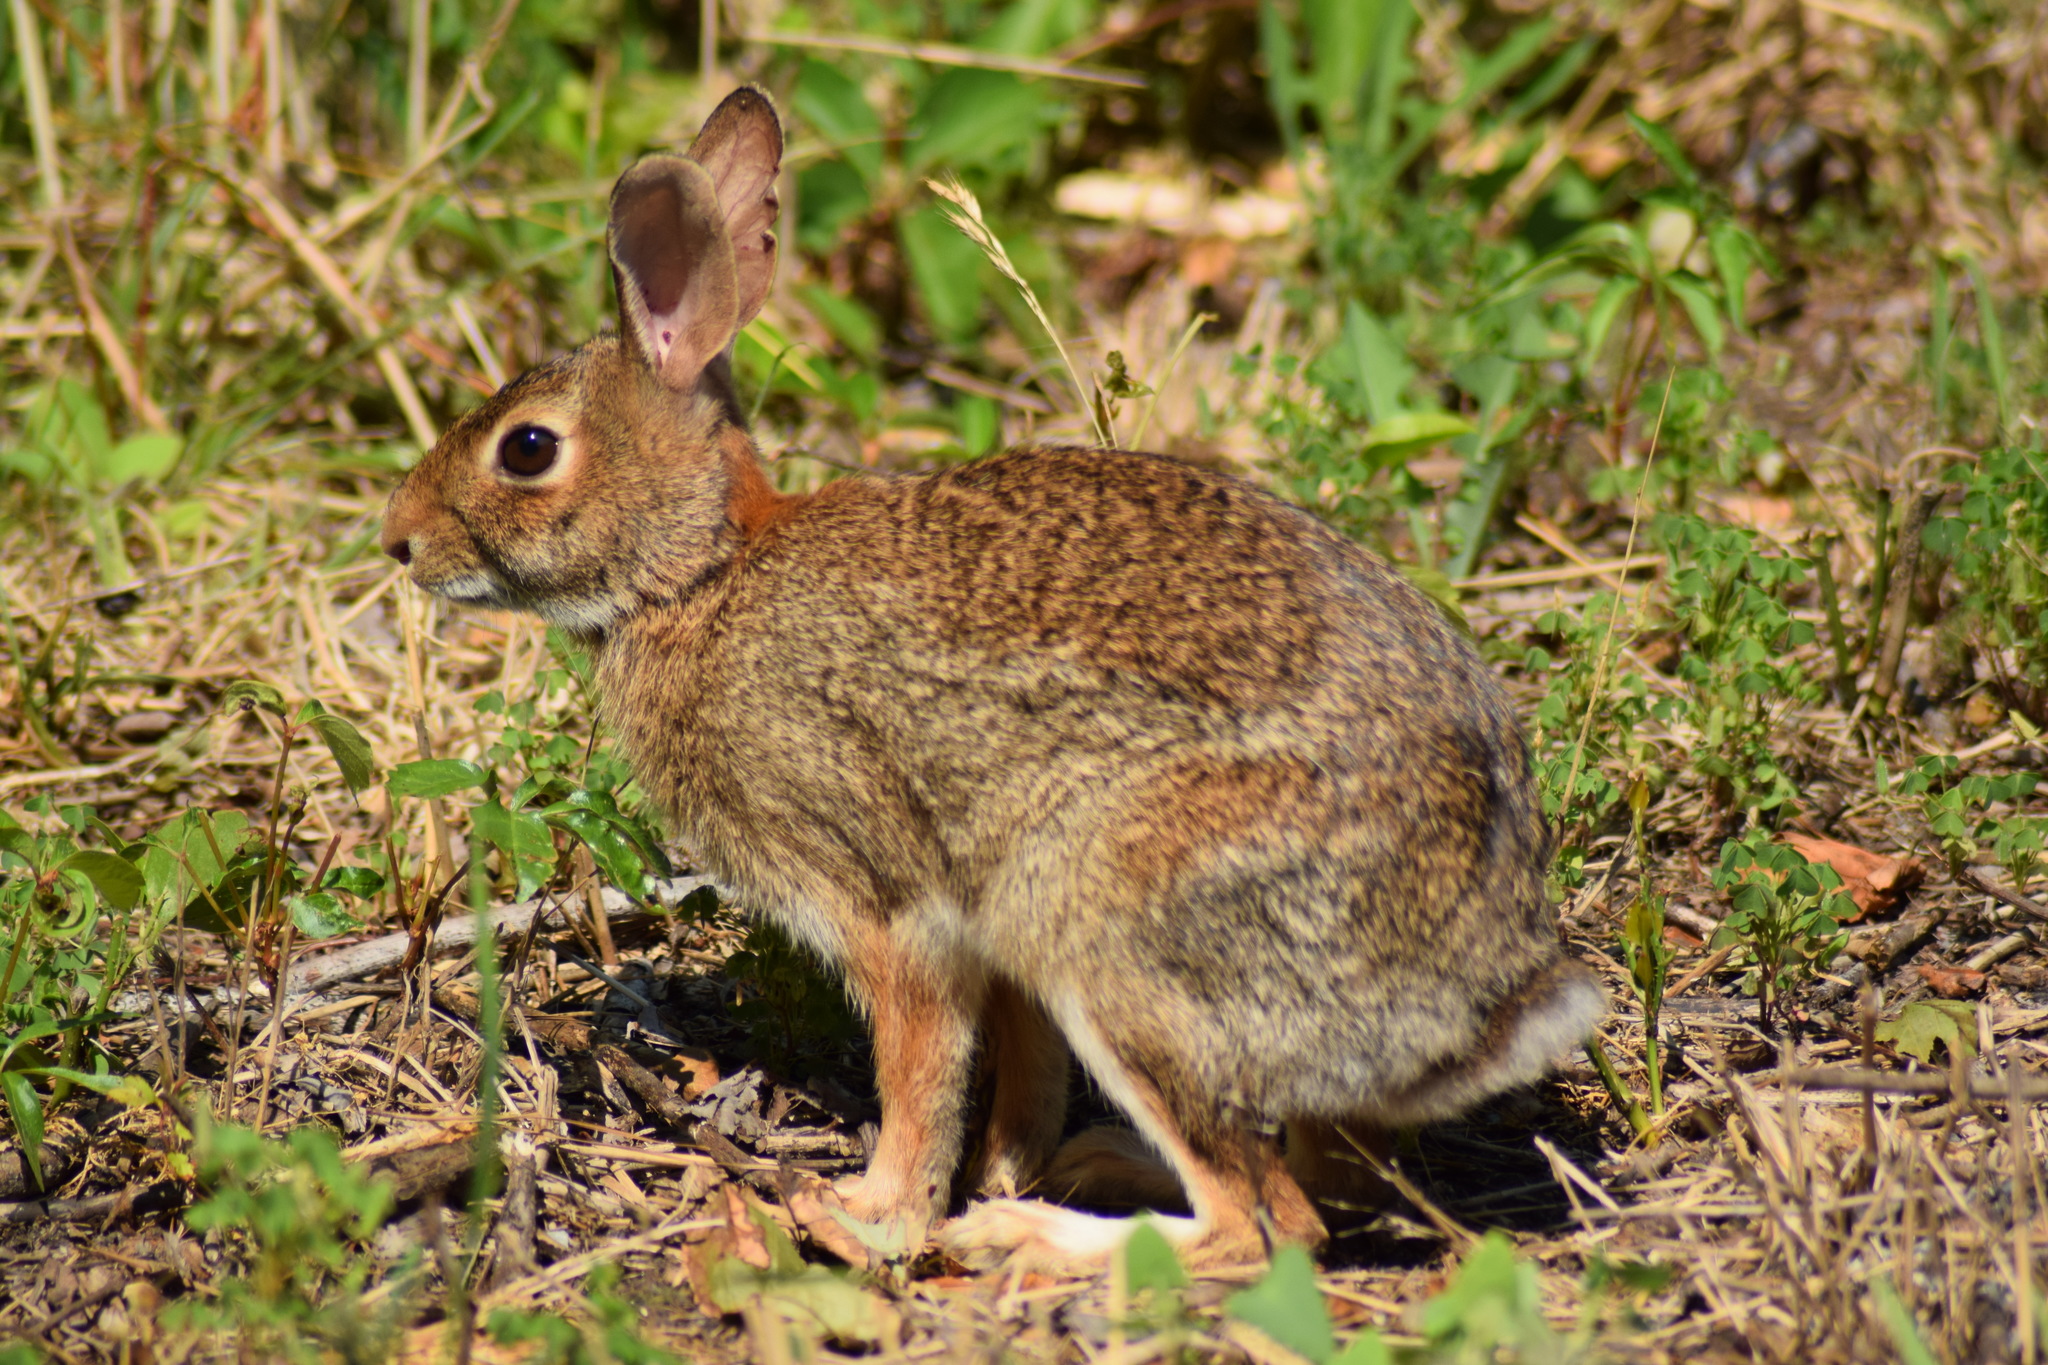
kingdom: Animalia
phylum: Chordata
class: Mammalia
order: Lagomorpha
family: Leporidae
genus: Sylvilagus
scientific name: Sylvilagus floridanus
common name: Eastern cottontail
